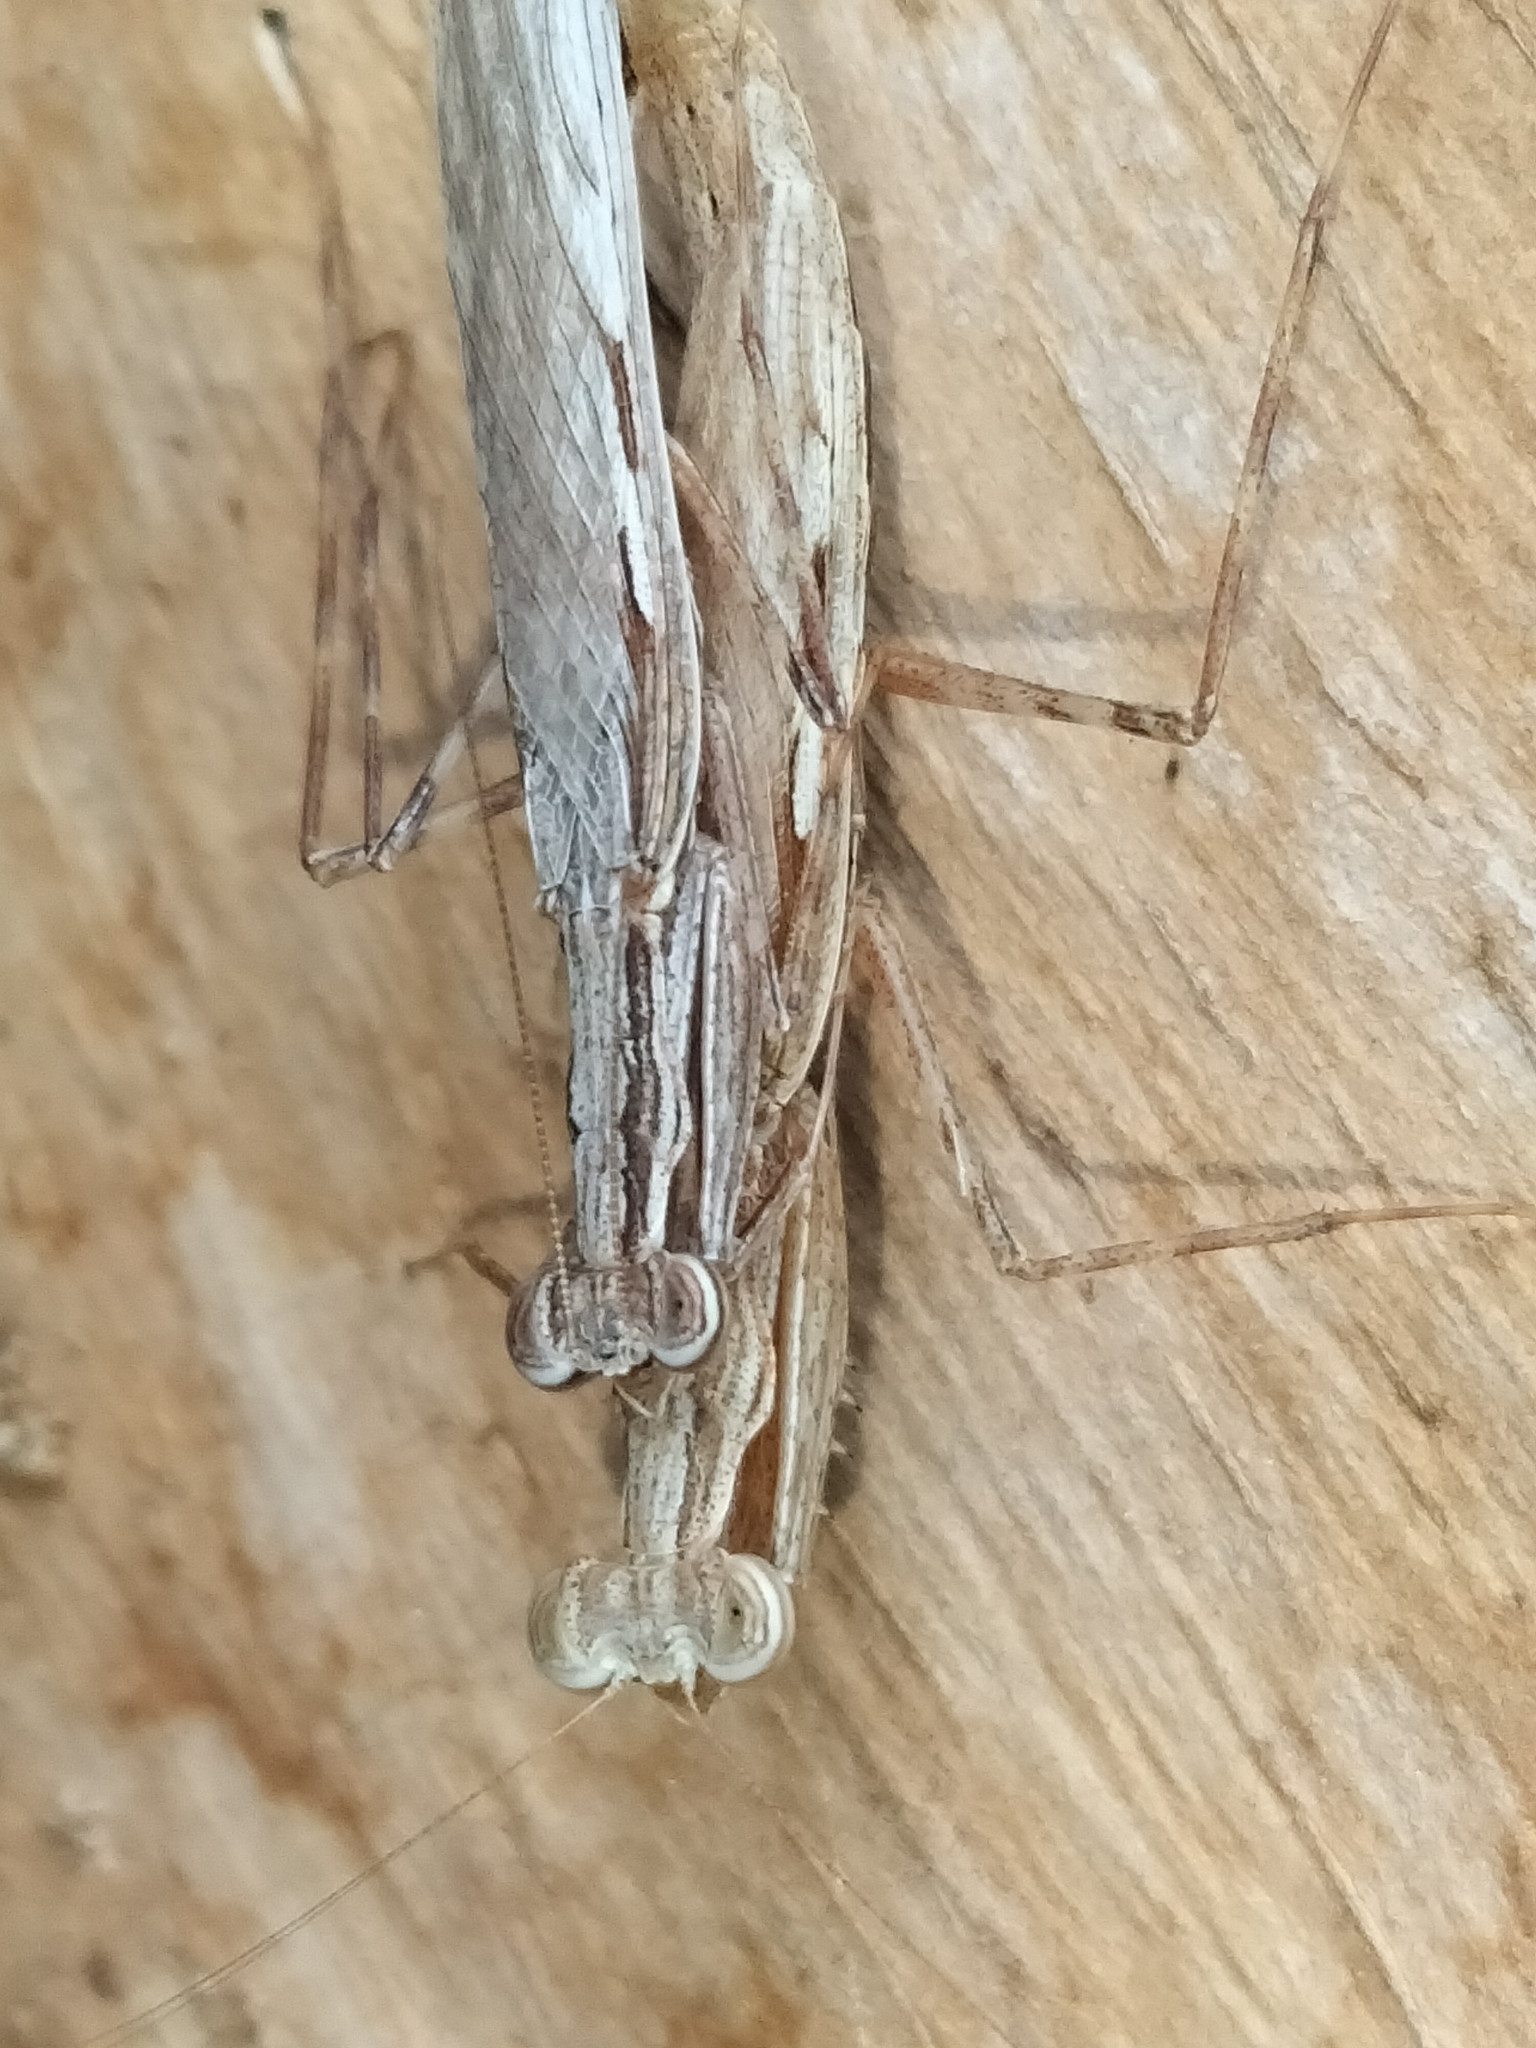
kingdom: Animalia
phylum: Arthropoda
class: Insecta
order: Mantodea
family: Nanomantidae
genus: Ima
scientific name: Ima fusca
